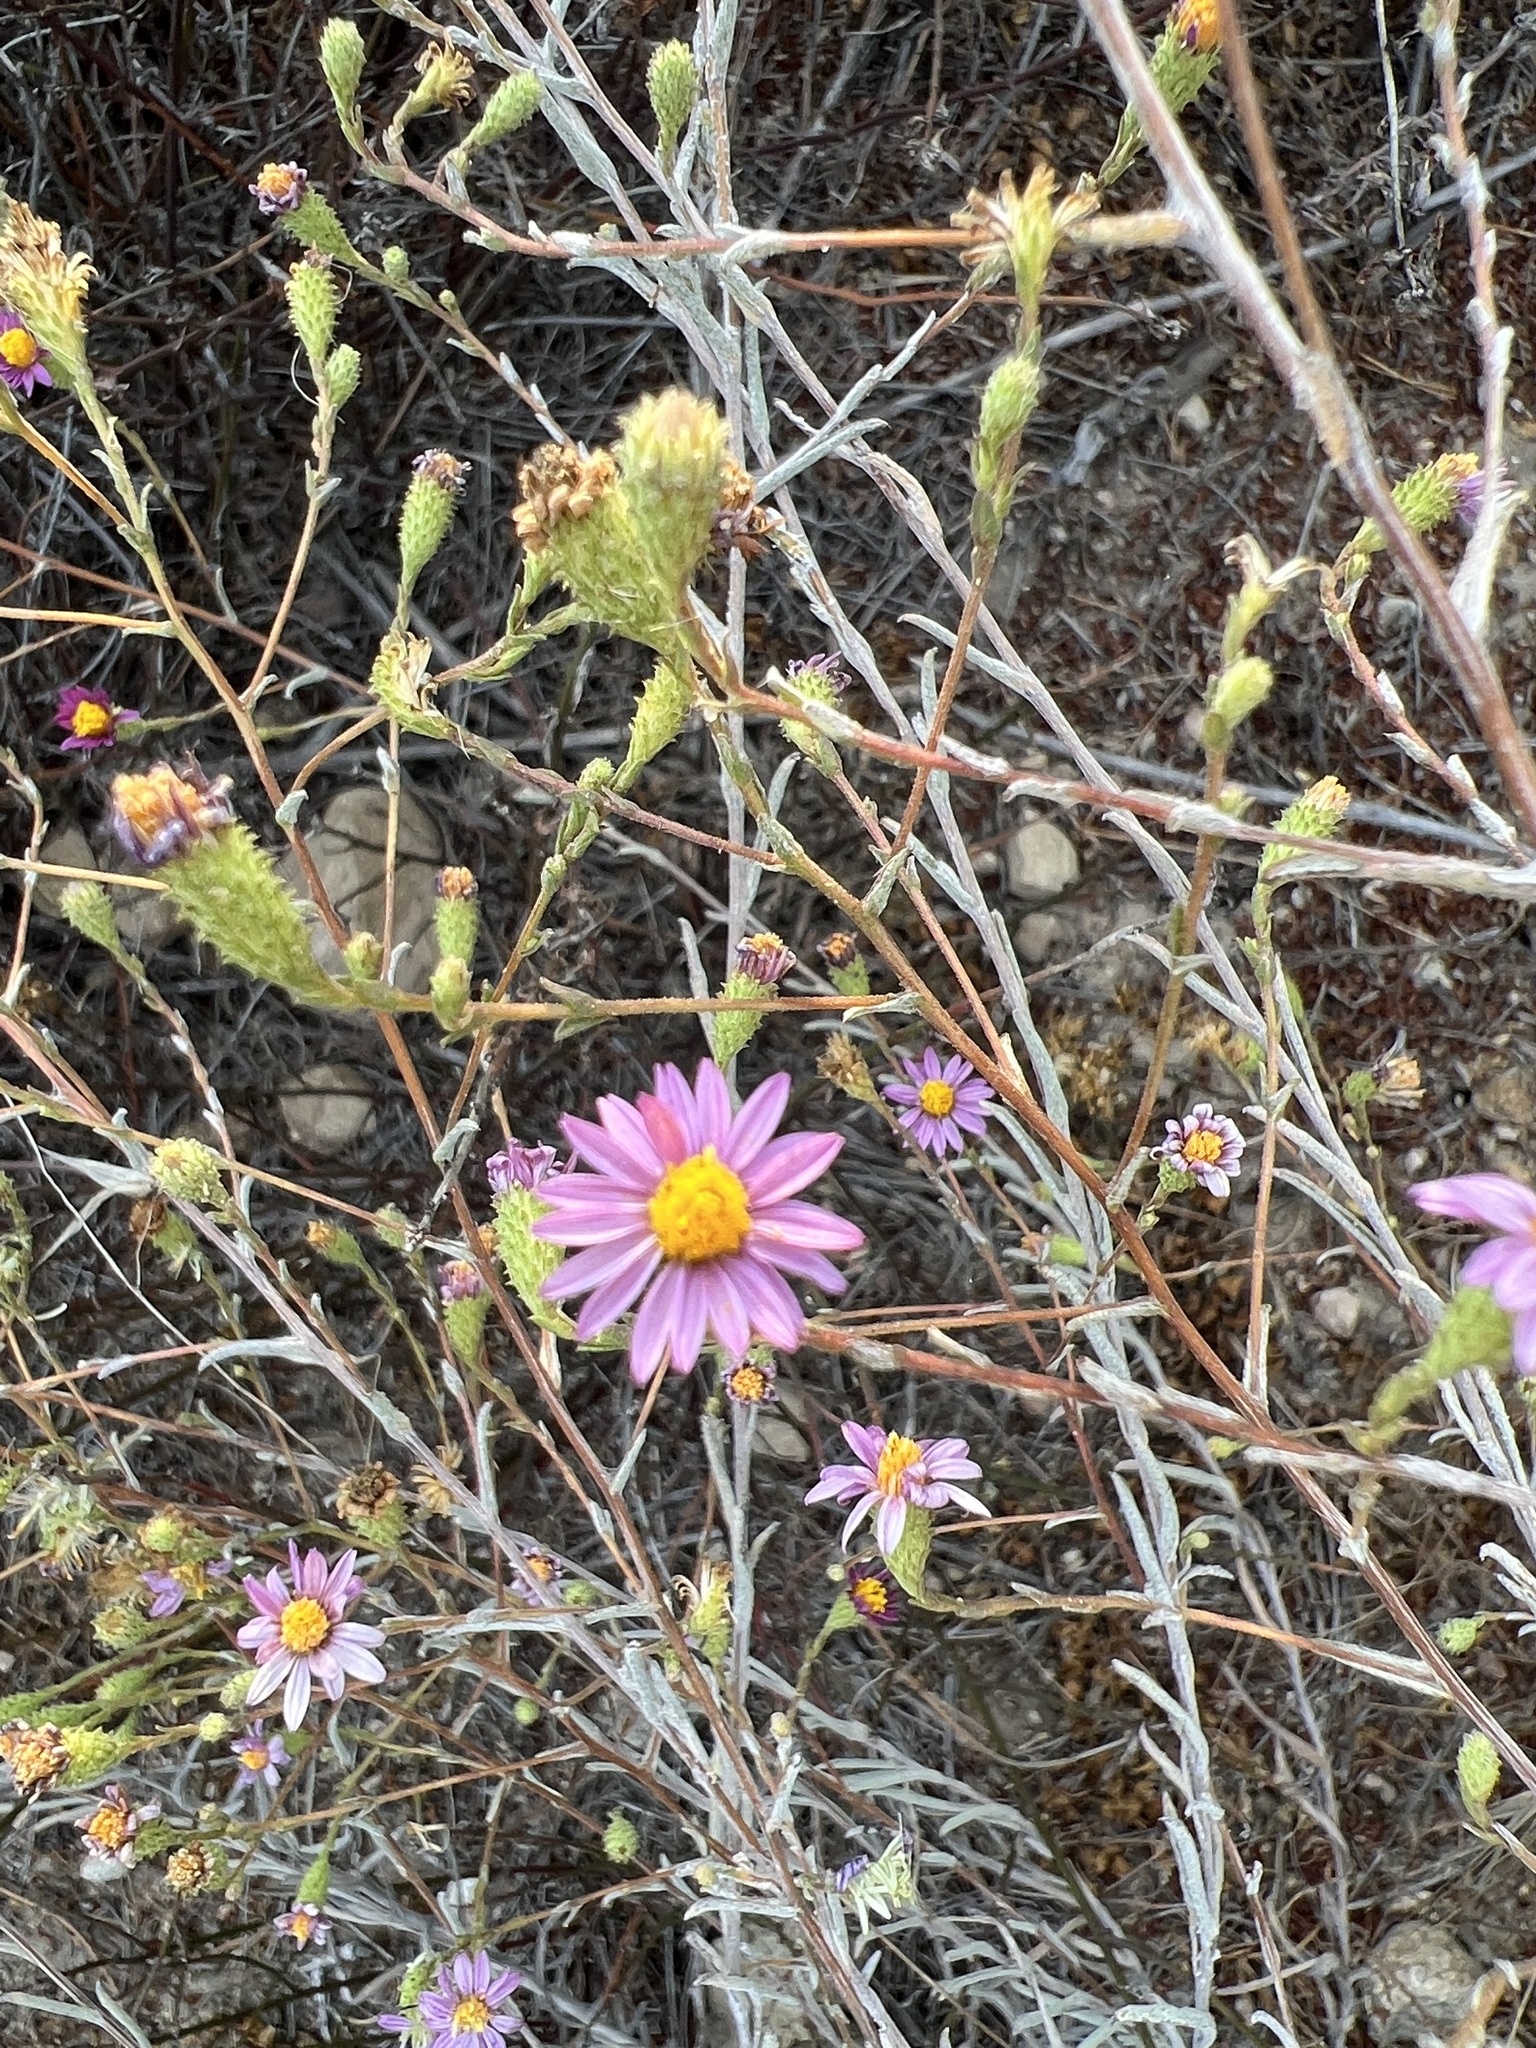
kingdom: Plantae
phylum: Tracheophyta
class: Magnoliopsida
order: Asterales
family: Asteraceae
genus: Corethrogyne
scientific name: Corethrogyne filaginifolia
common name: Sand-aster
